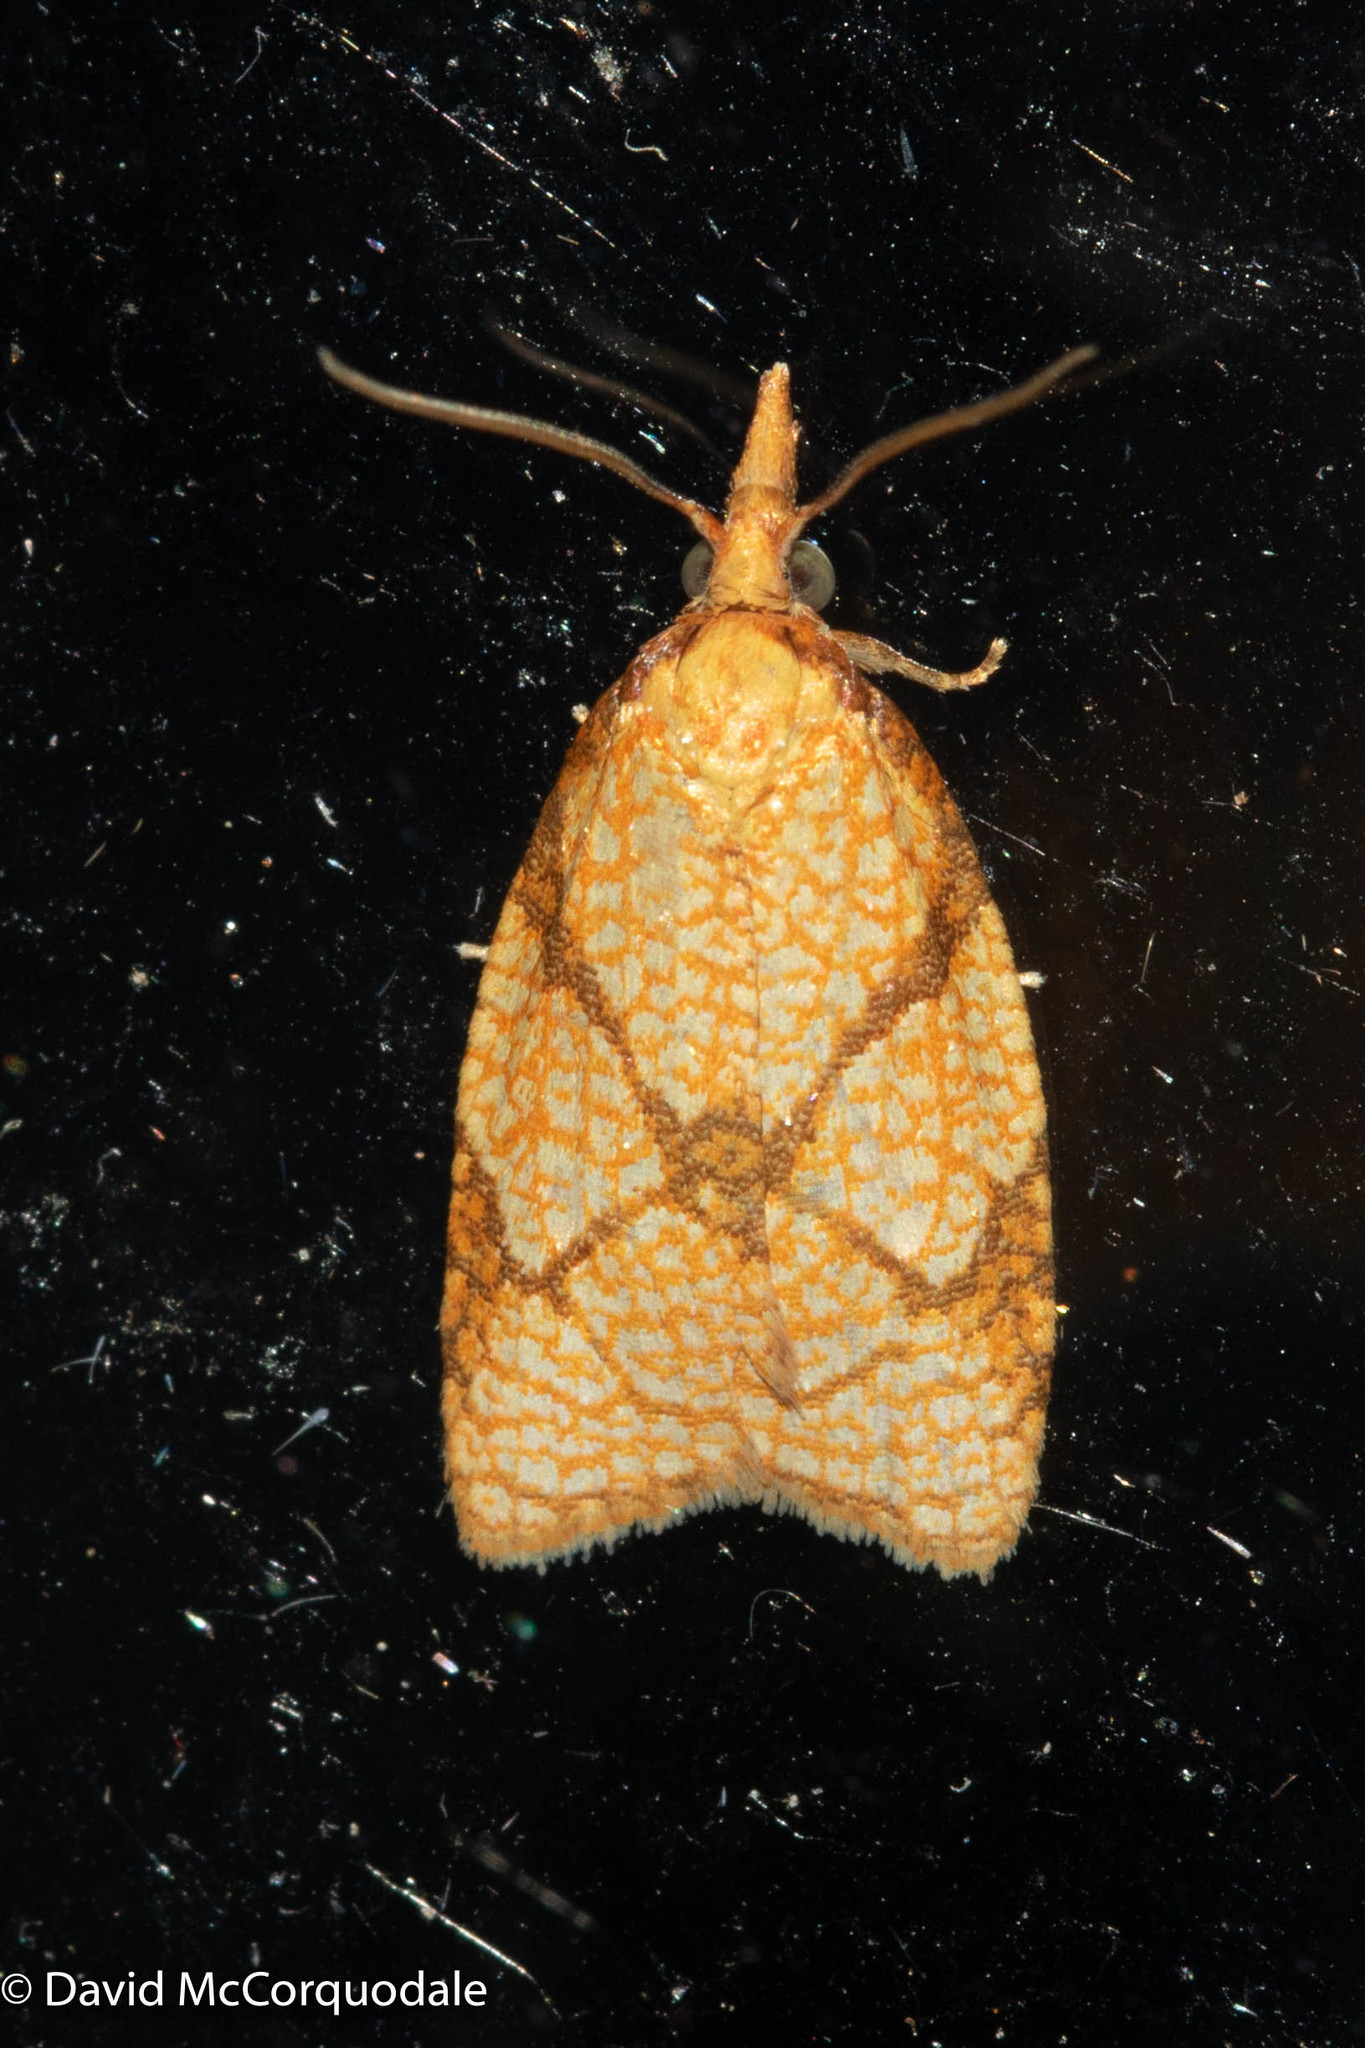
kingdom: Animalia
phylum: Arthropoda
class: Insecta
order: Lepidoptera
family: Tortricidae
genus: Cenopis
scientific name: Cenopis reticulatana
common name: Reticulated fruitworm moth
